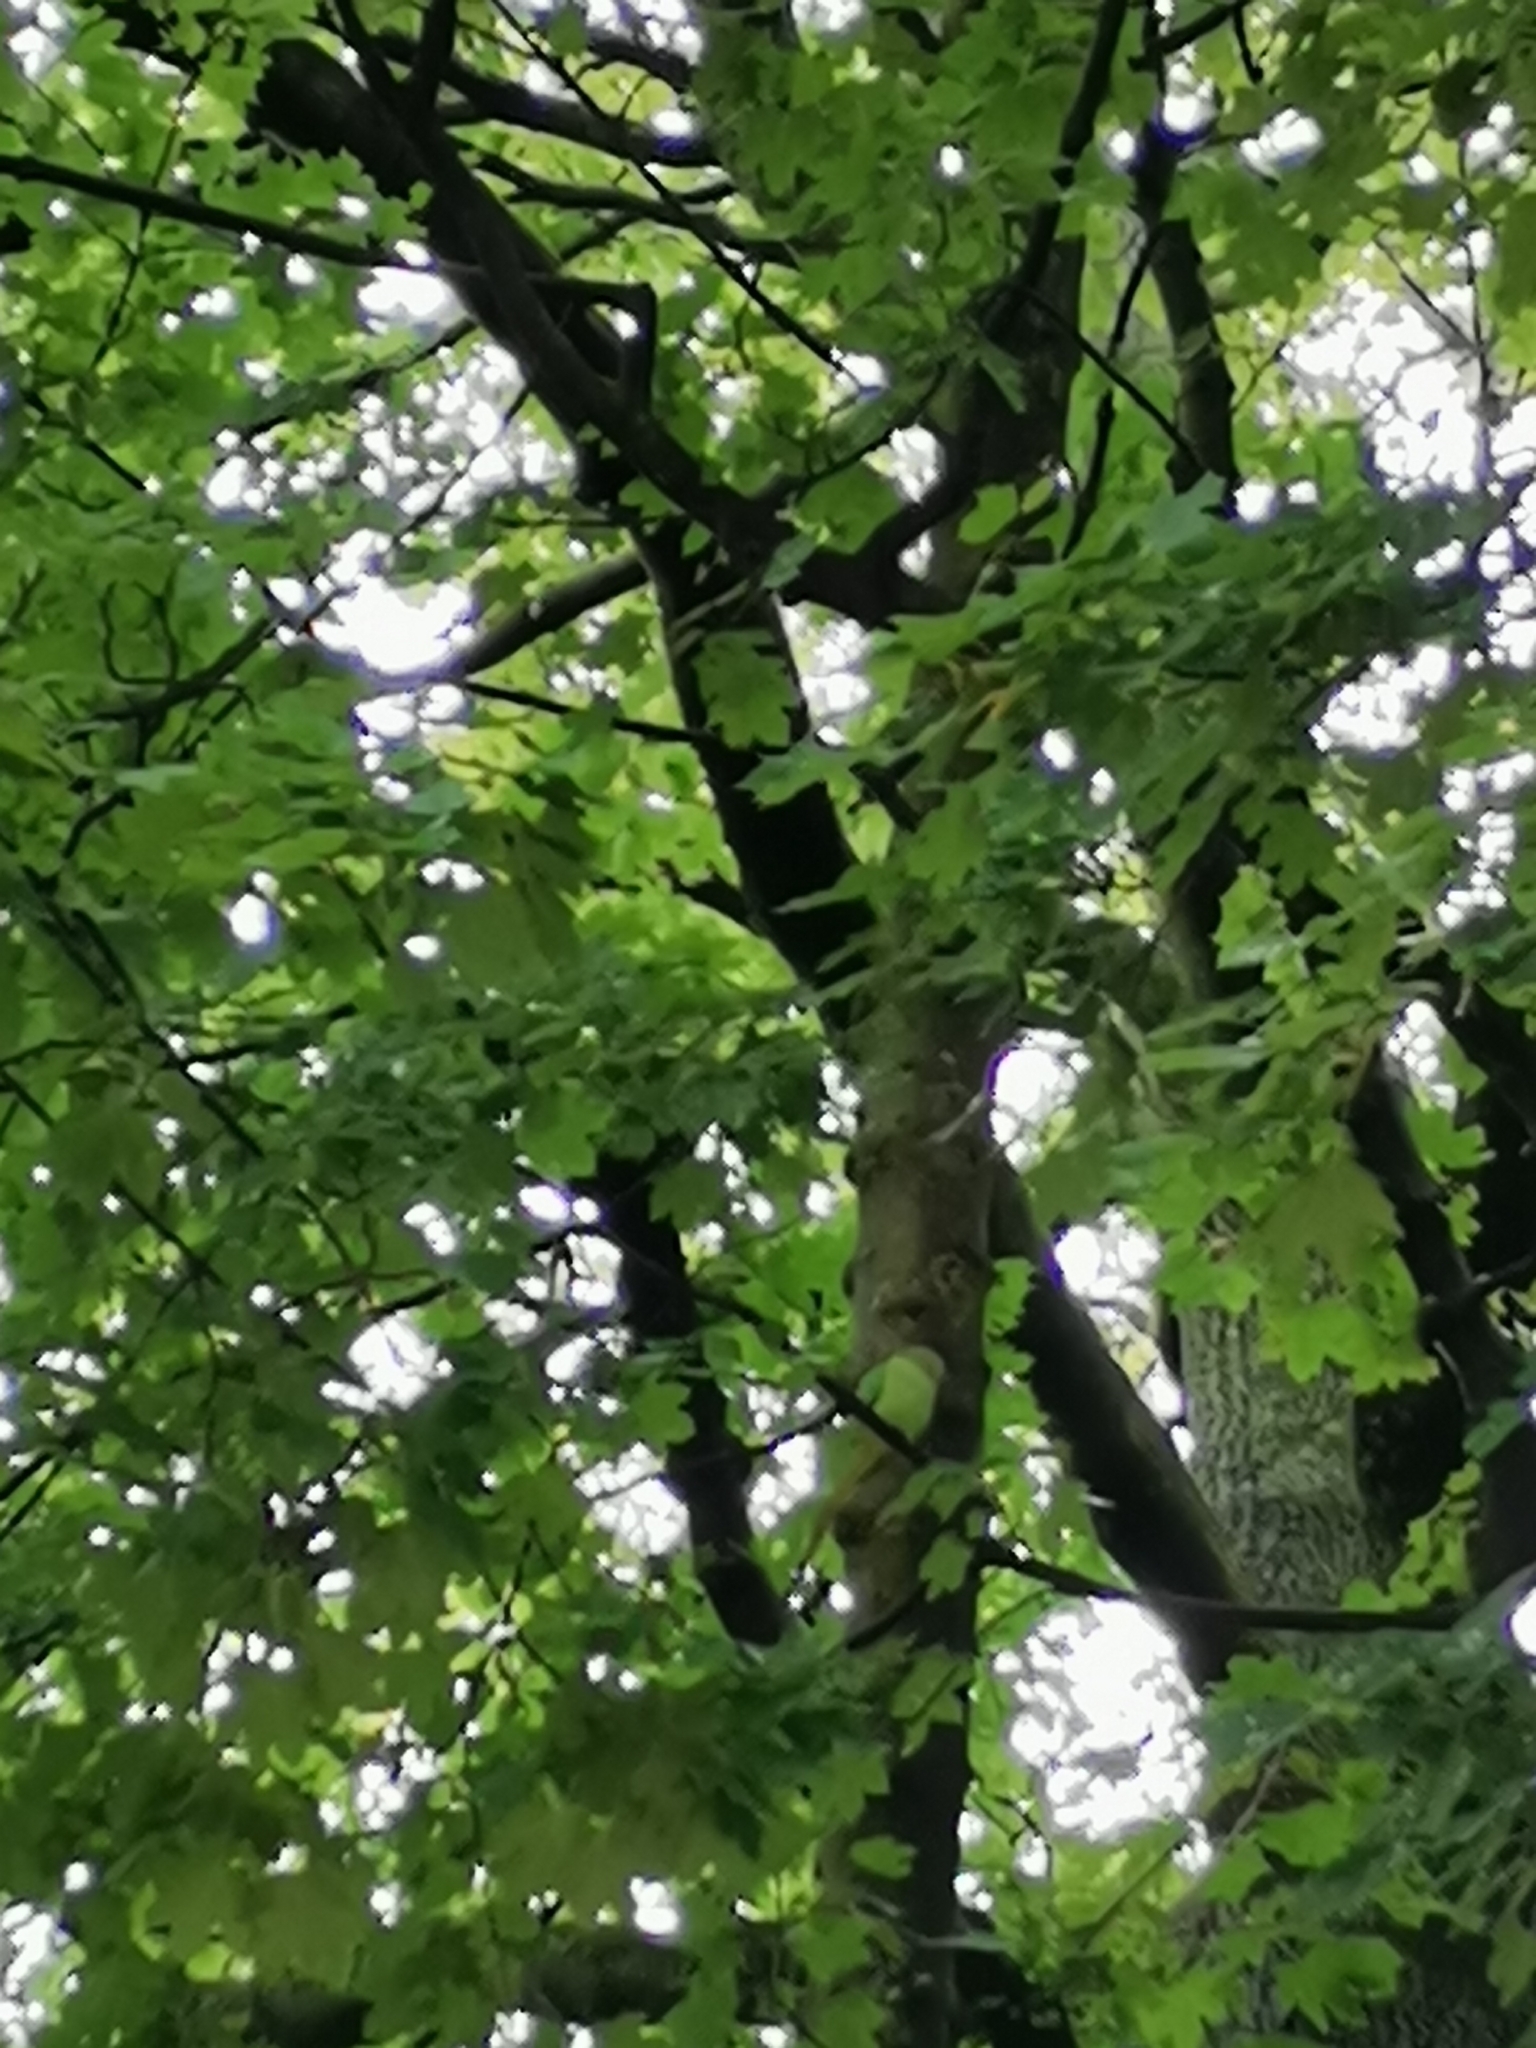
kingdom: Animalia
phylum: Chordata
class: Aves
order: Psittaciformes
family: Psittacidae
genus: Psittacula
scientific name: Psittacula krameri
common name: Rose-ringed parakeet
